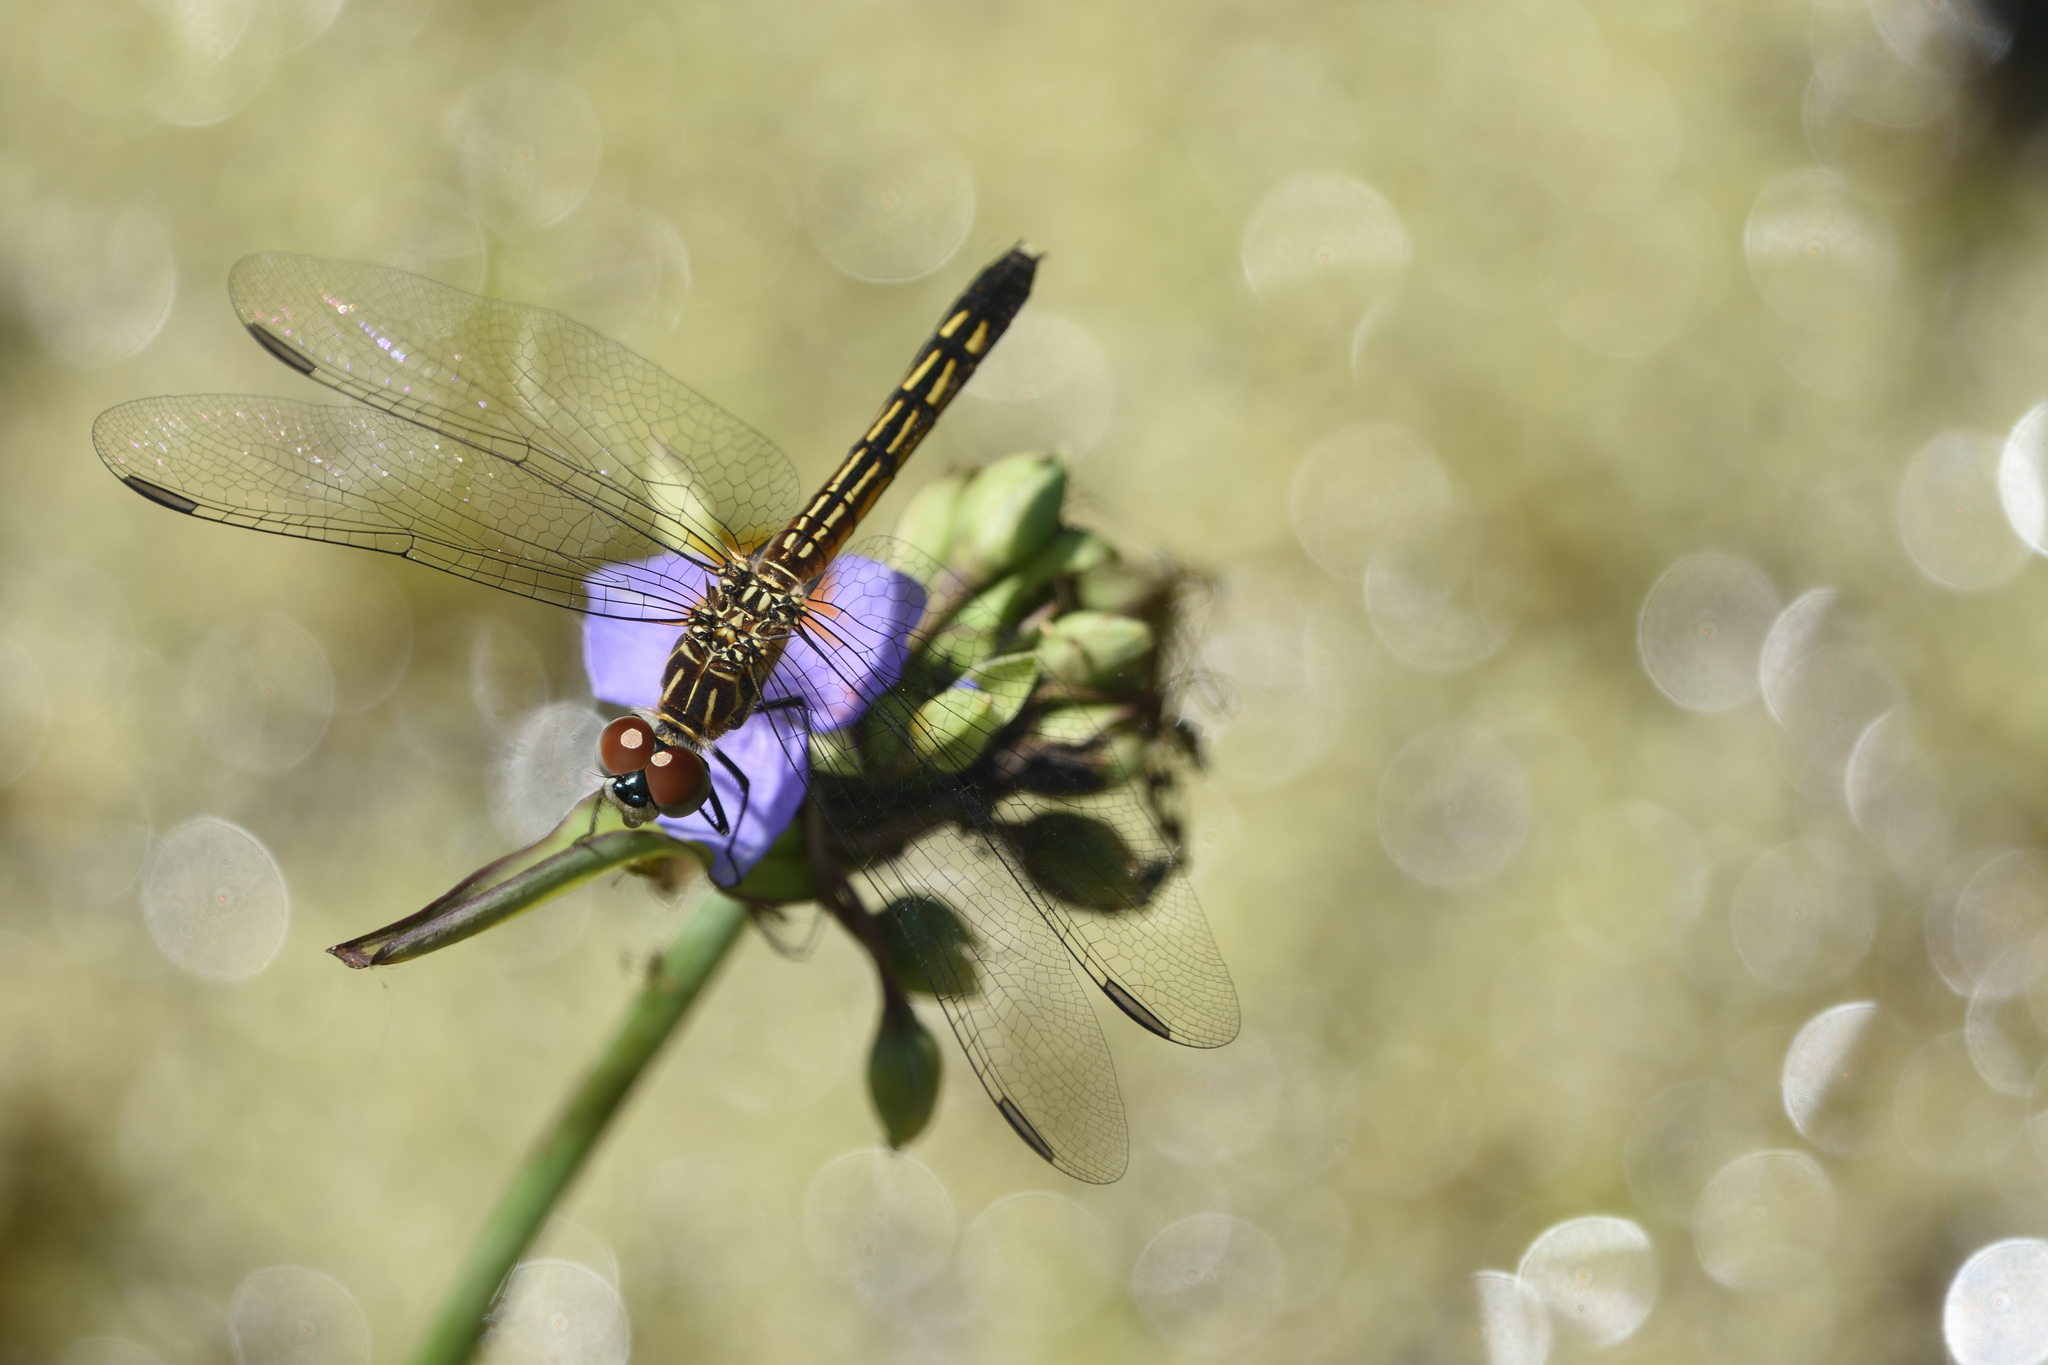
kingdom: Animalia
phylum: Arthropoda
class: Insecta
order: Odonata
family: Libellulidae
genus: Pachydiplax
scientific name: Pachydiplax longipennis
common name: Blue dasher
